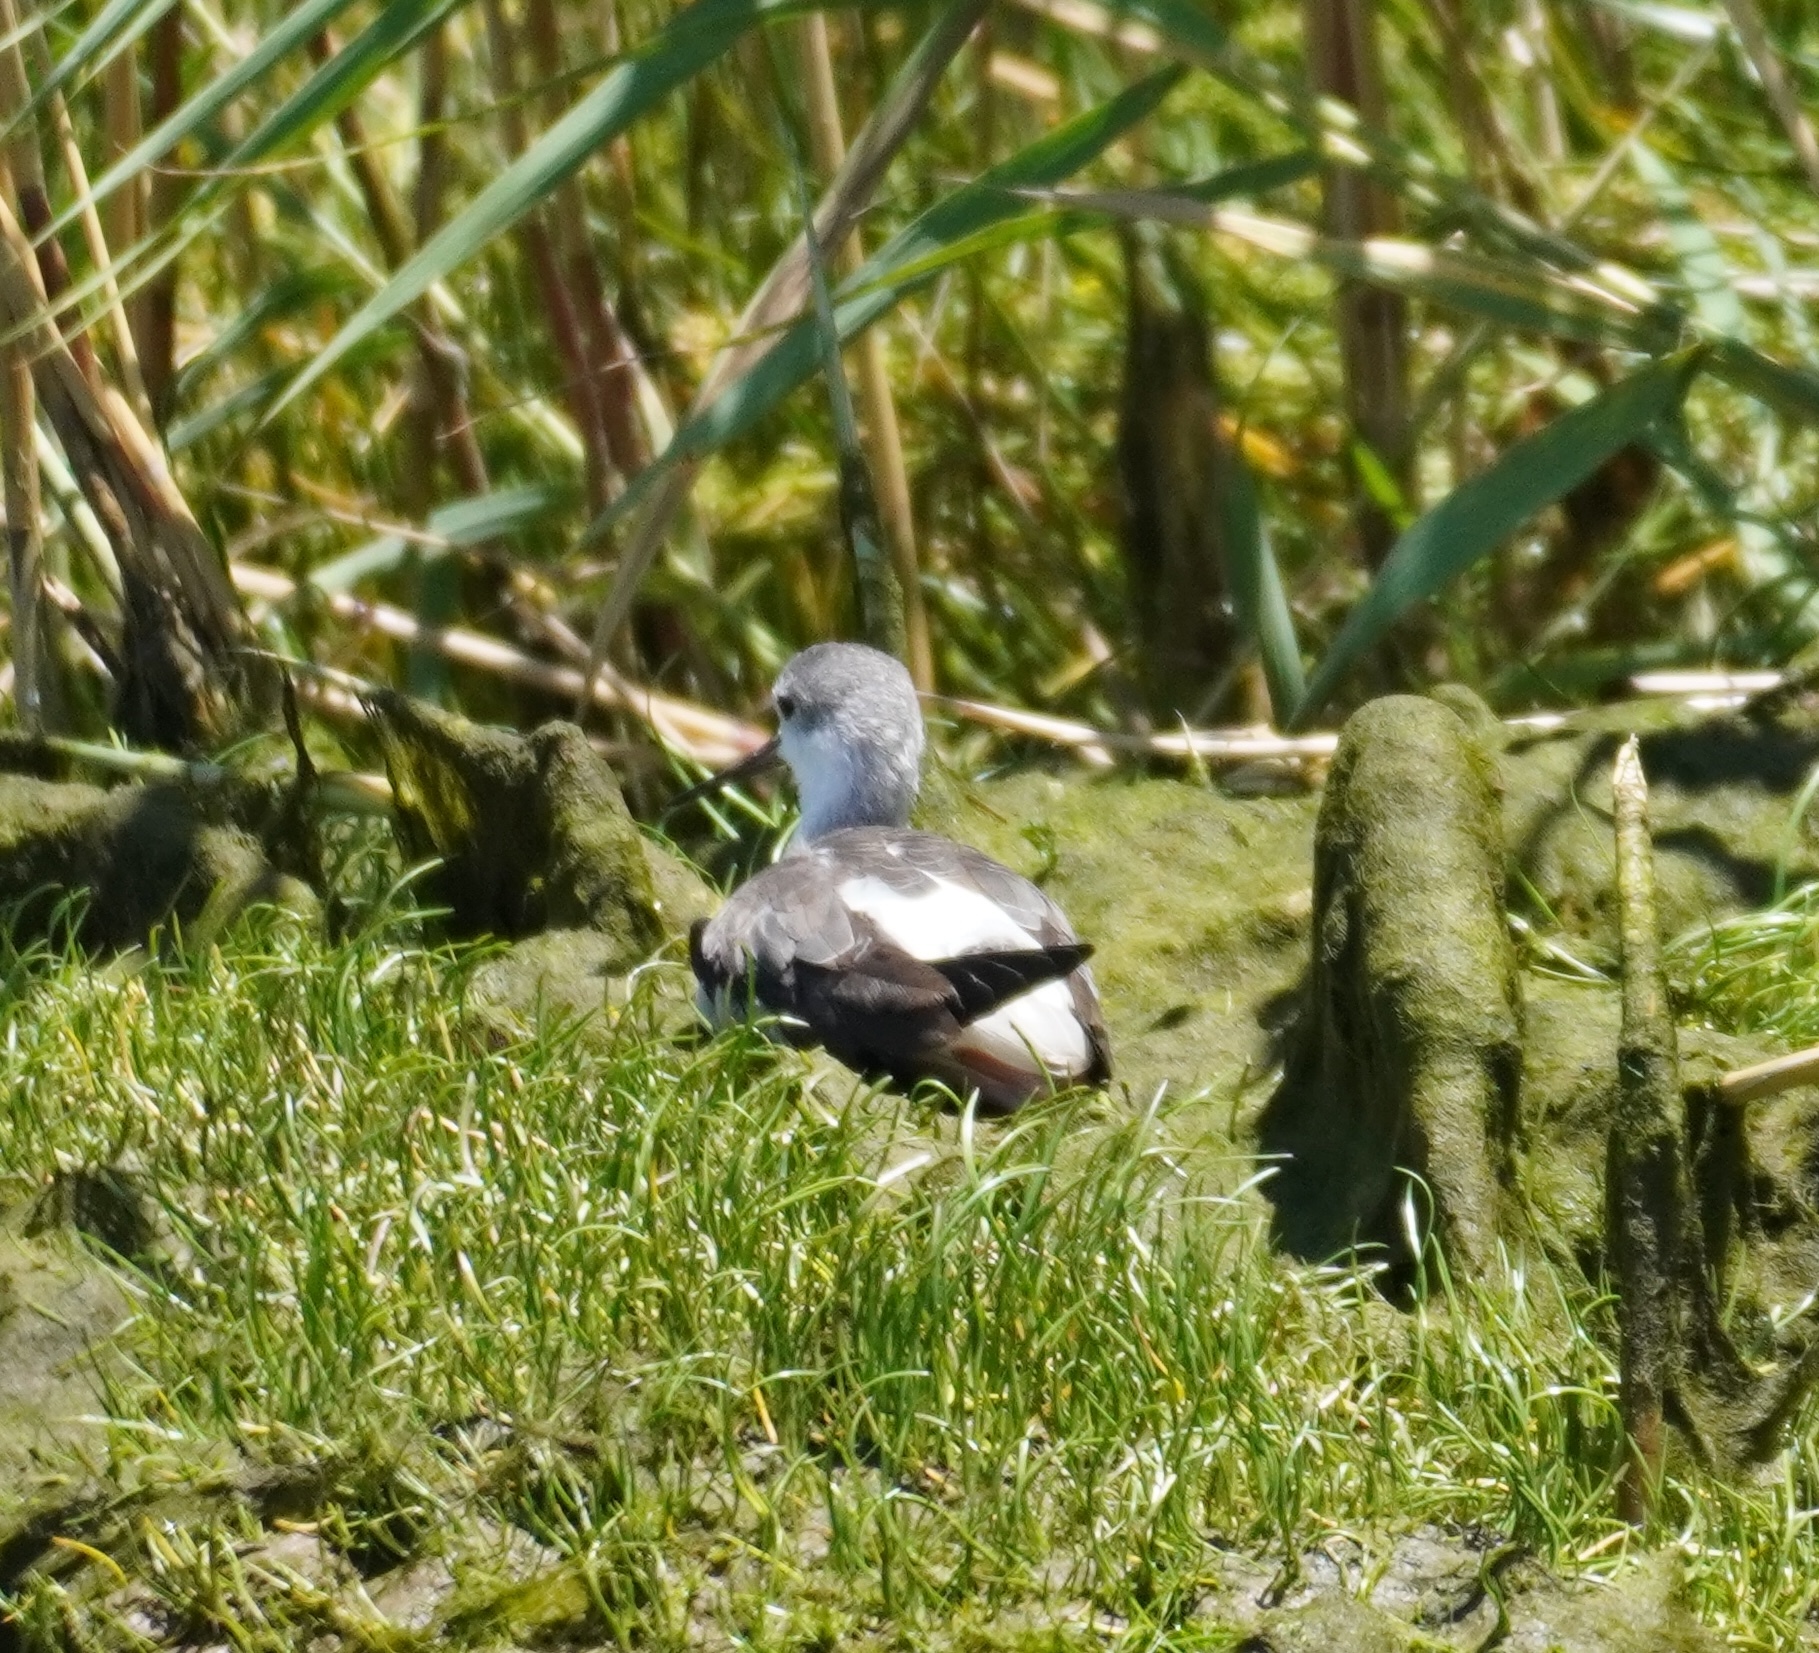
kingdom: Animalia
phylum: Chordata
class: Aves
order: Charadriiformes
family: Scolopacidae
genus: Tringa
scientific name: Tringa stagnatilis
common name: Marsh sandpiper
